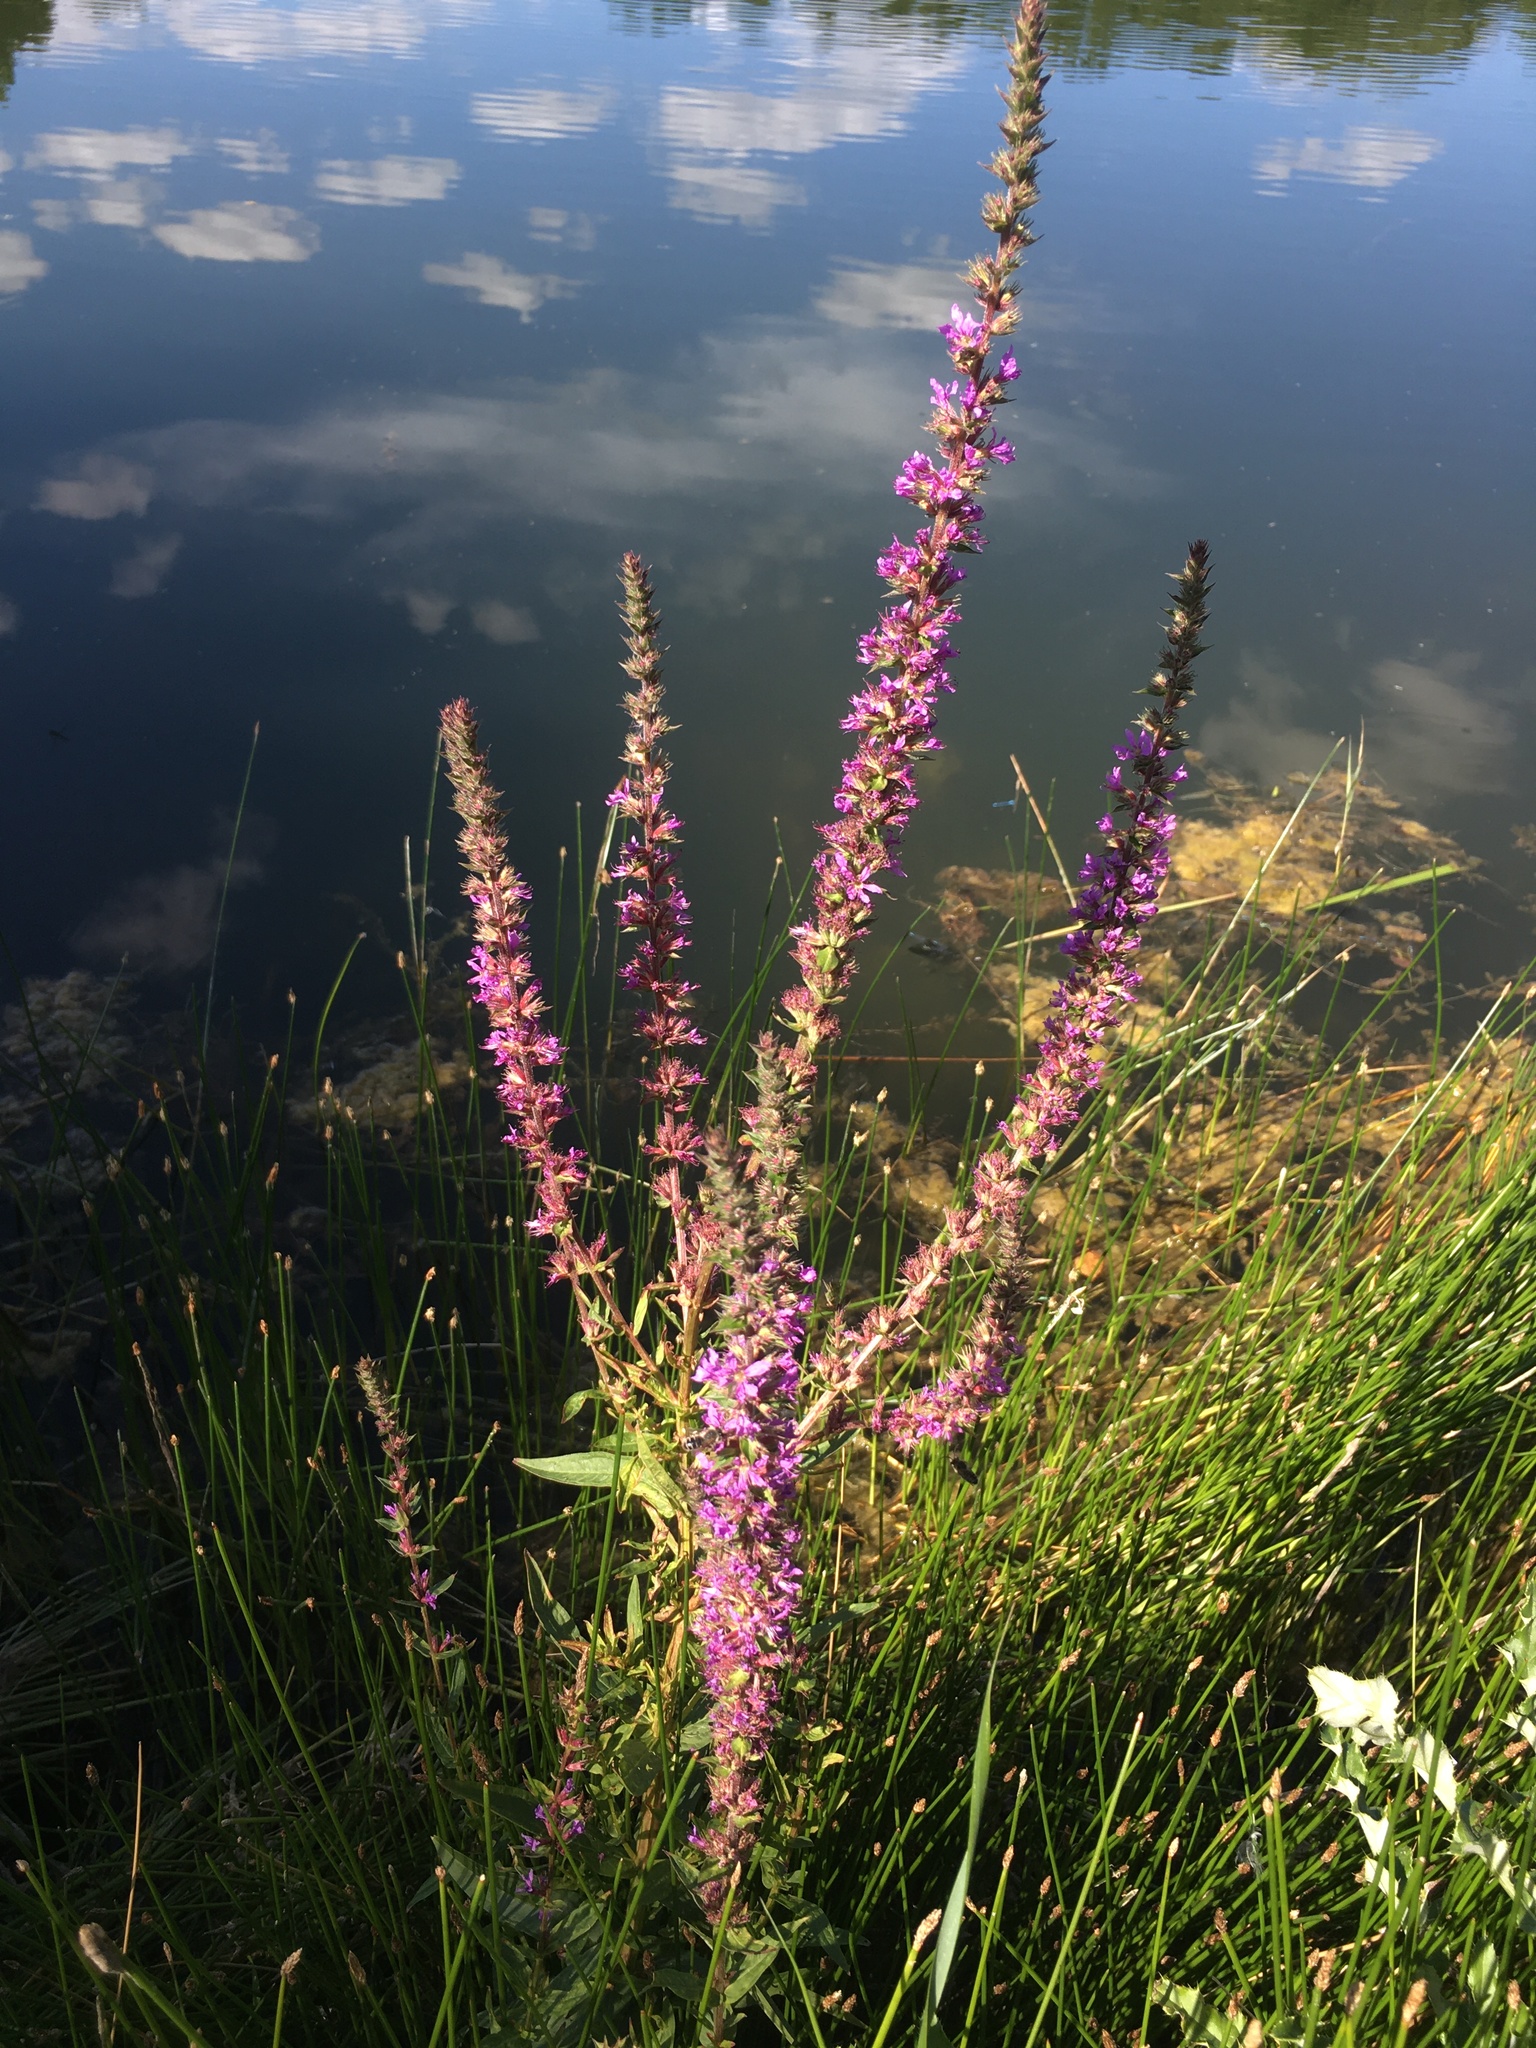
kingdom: Plantae
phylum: Tracheophyta
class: Magnoliopsida
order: Myrtales
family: Lythraceae
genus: Lythrum
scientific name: Lythrum salicaria
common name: Purple loosestrife
